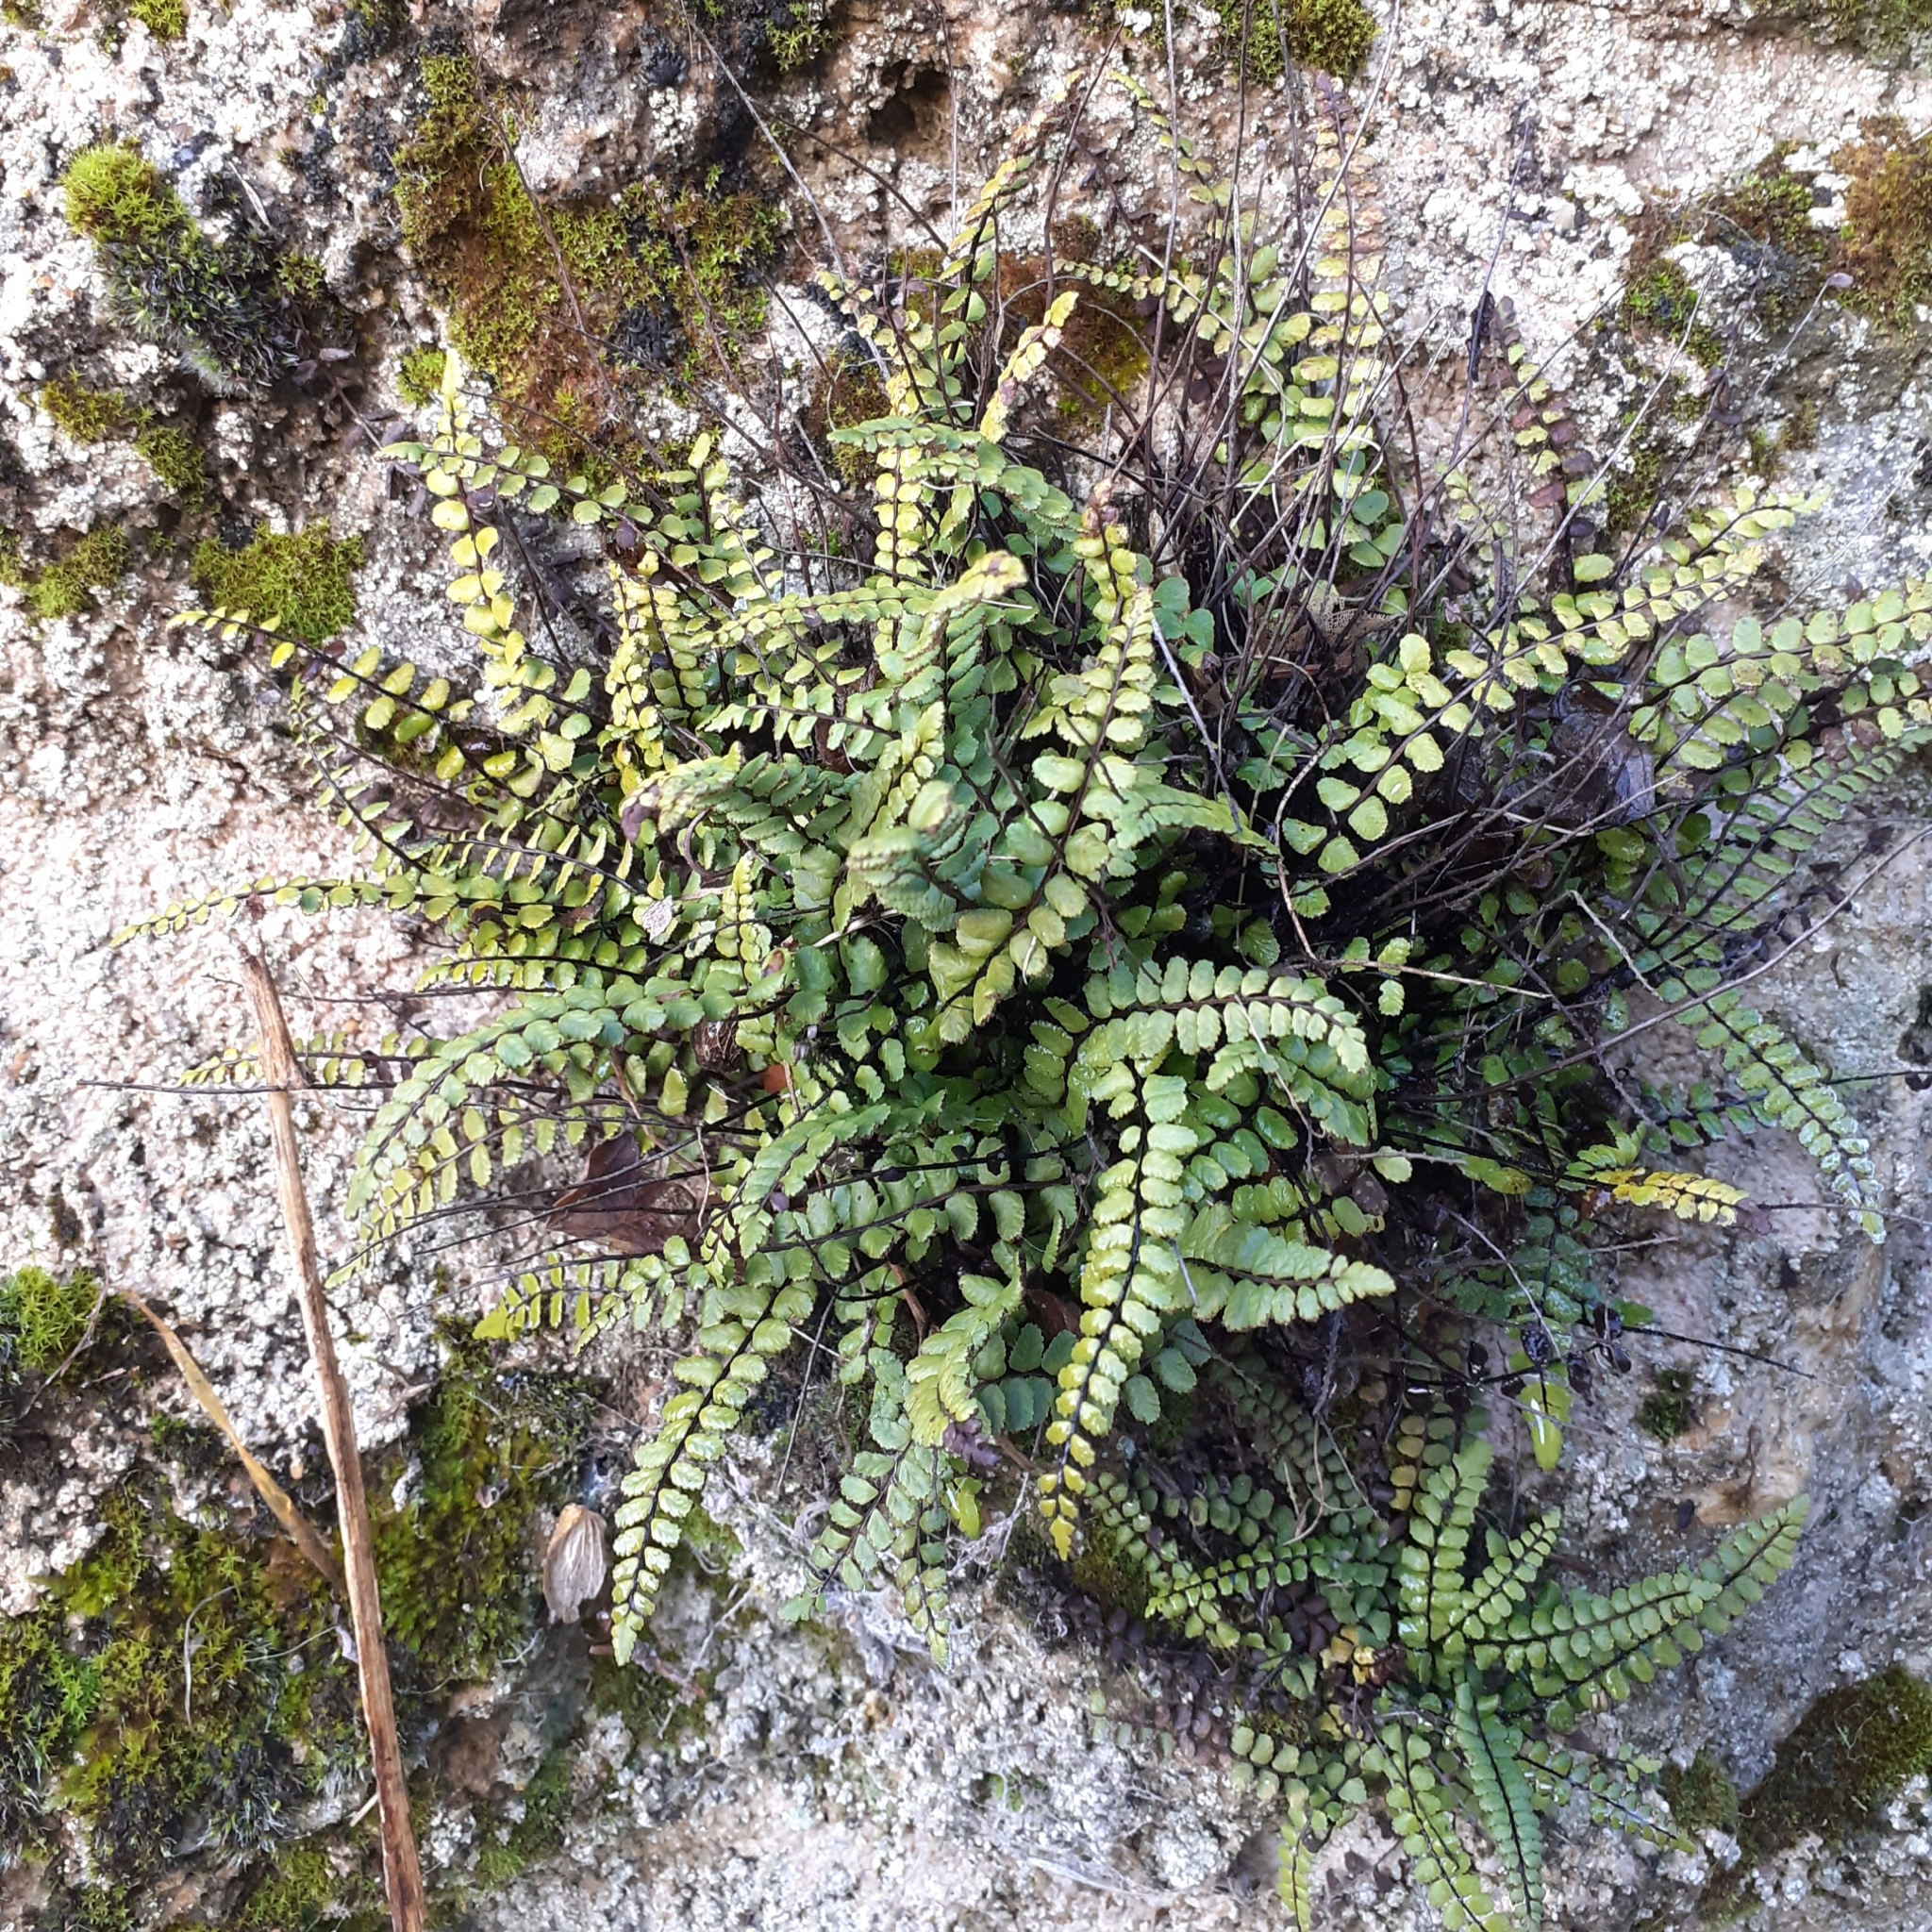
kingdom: Plantae
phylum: Tracheophyta
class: Polypodiopsida
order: Polypodiales
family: Aspleniaceae
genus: Asplenium
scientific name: Asplenium trichomanes
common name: Maidenhair spleenwort
